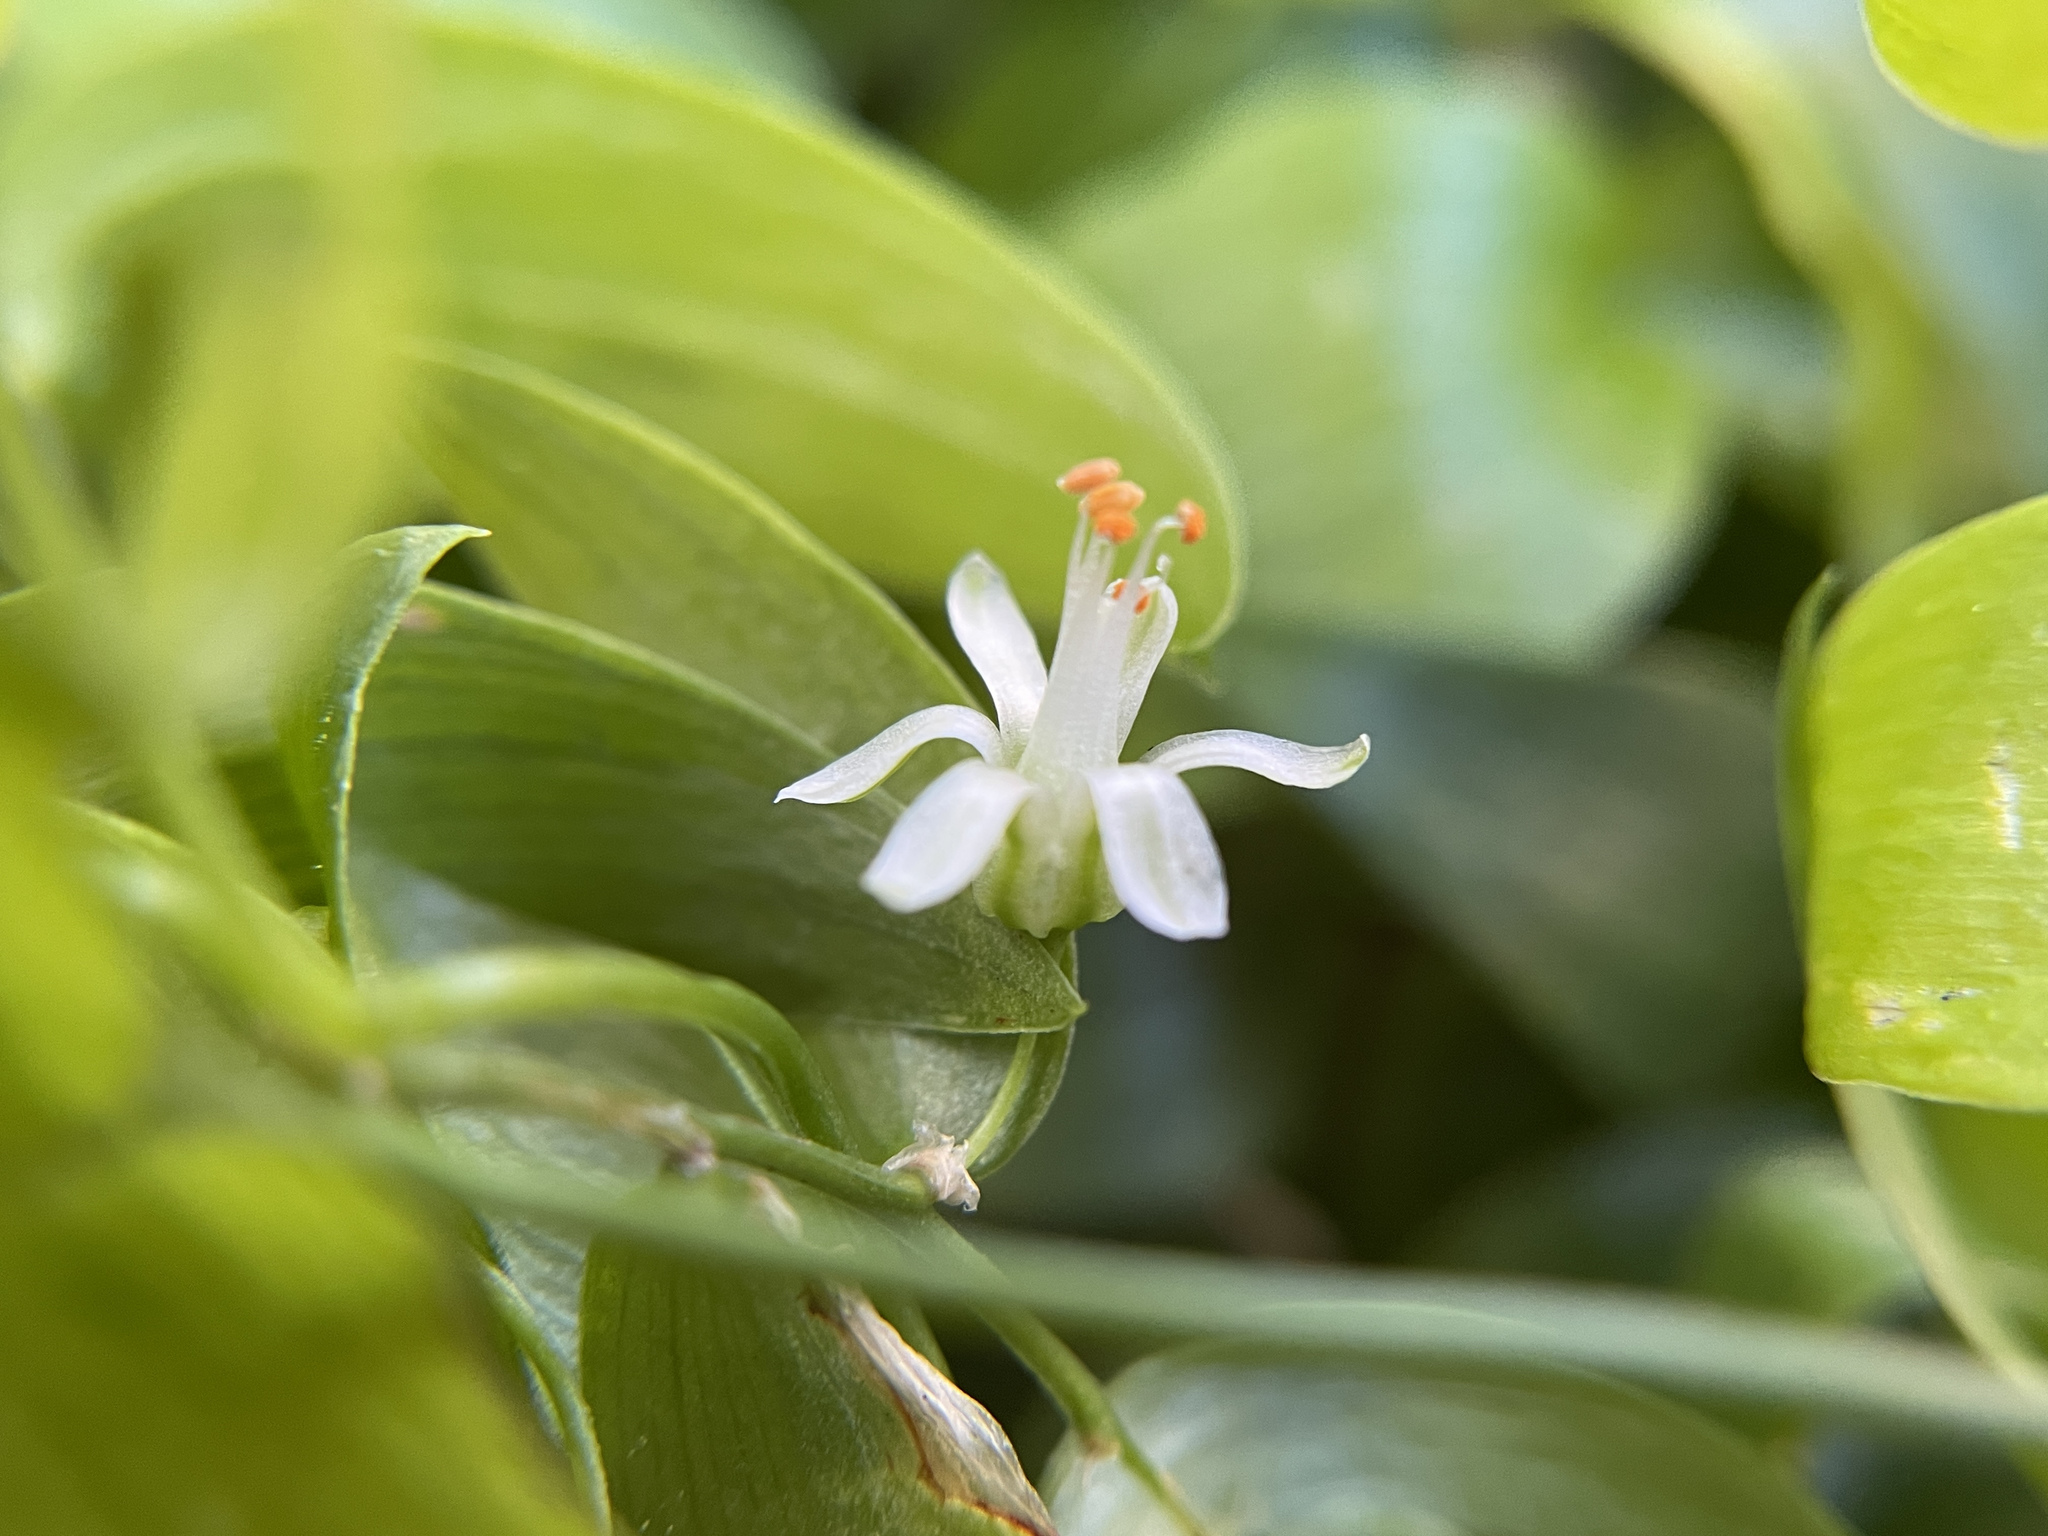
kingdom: Plantae
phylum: Tracheophyta
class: Liliopsida
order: Asparagales
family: Asparagaceae
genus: Asparagus
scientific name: Asparagus asparagoides
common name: African asparagus fern
